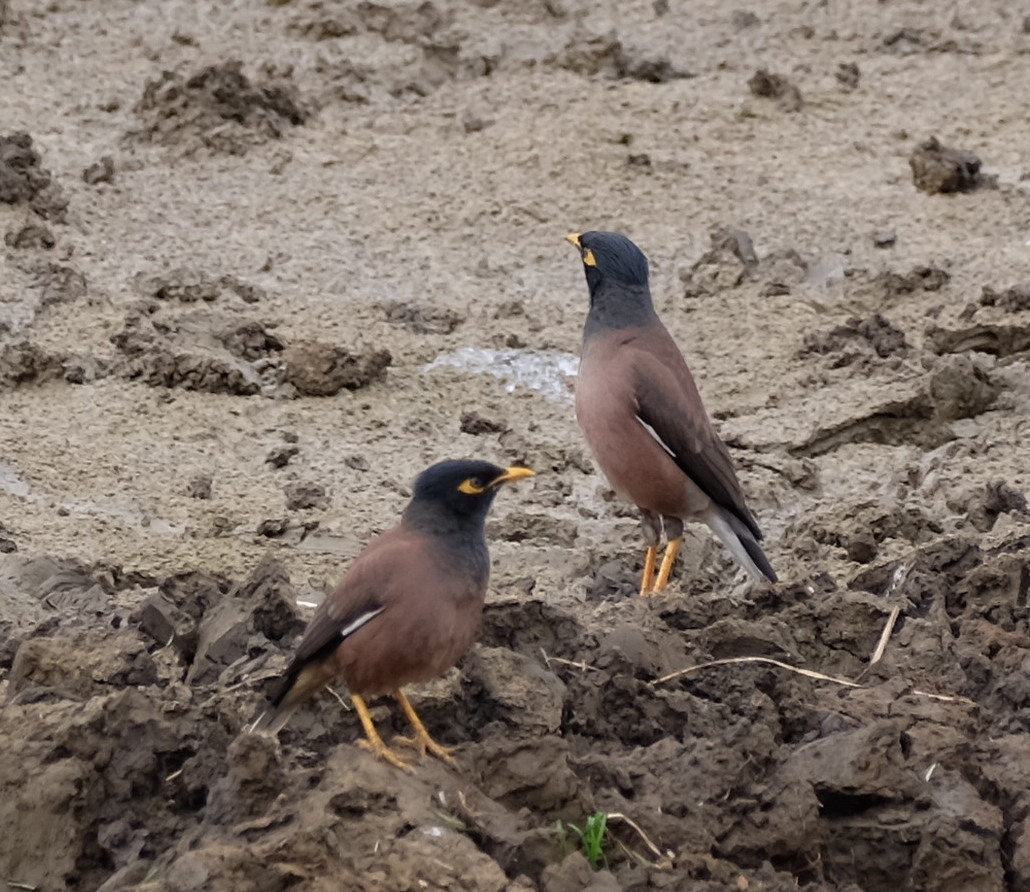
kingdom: Animalia
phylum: Chordata
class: Aves
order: Passeriformes
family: Sturnidae
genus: Acridotheres
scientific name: Acridotheres tristis
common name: Common myna
